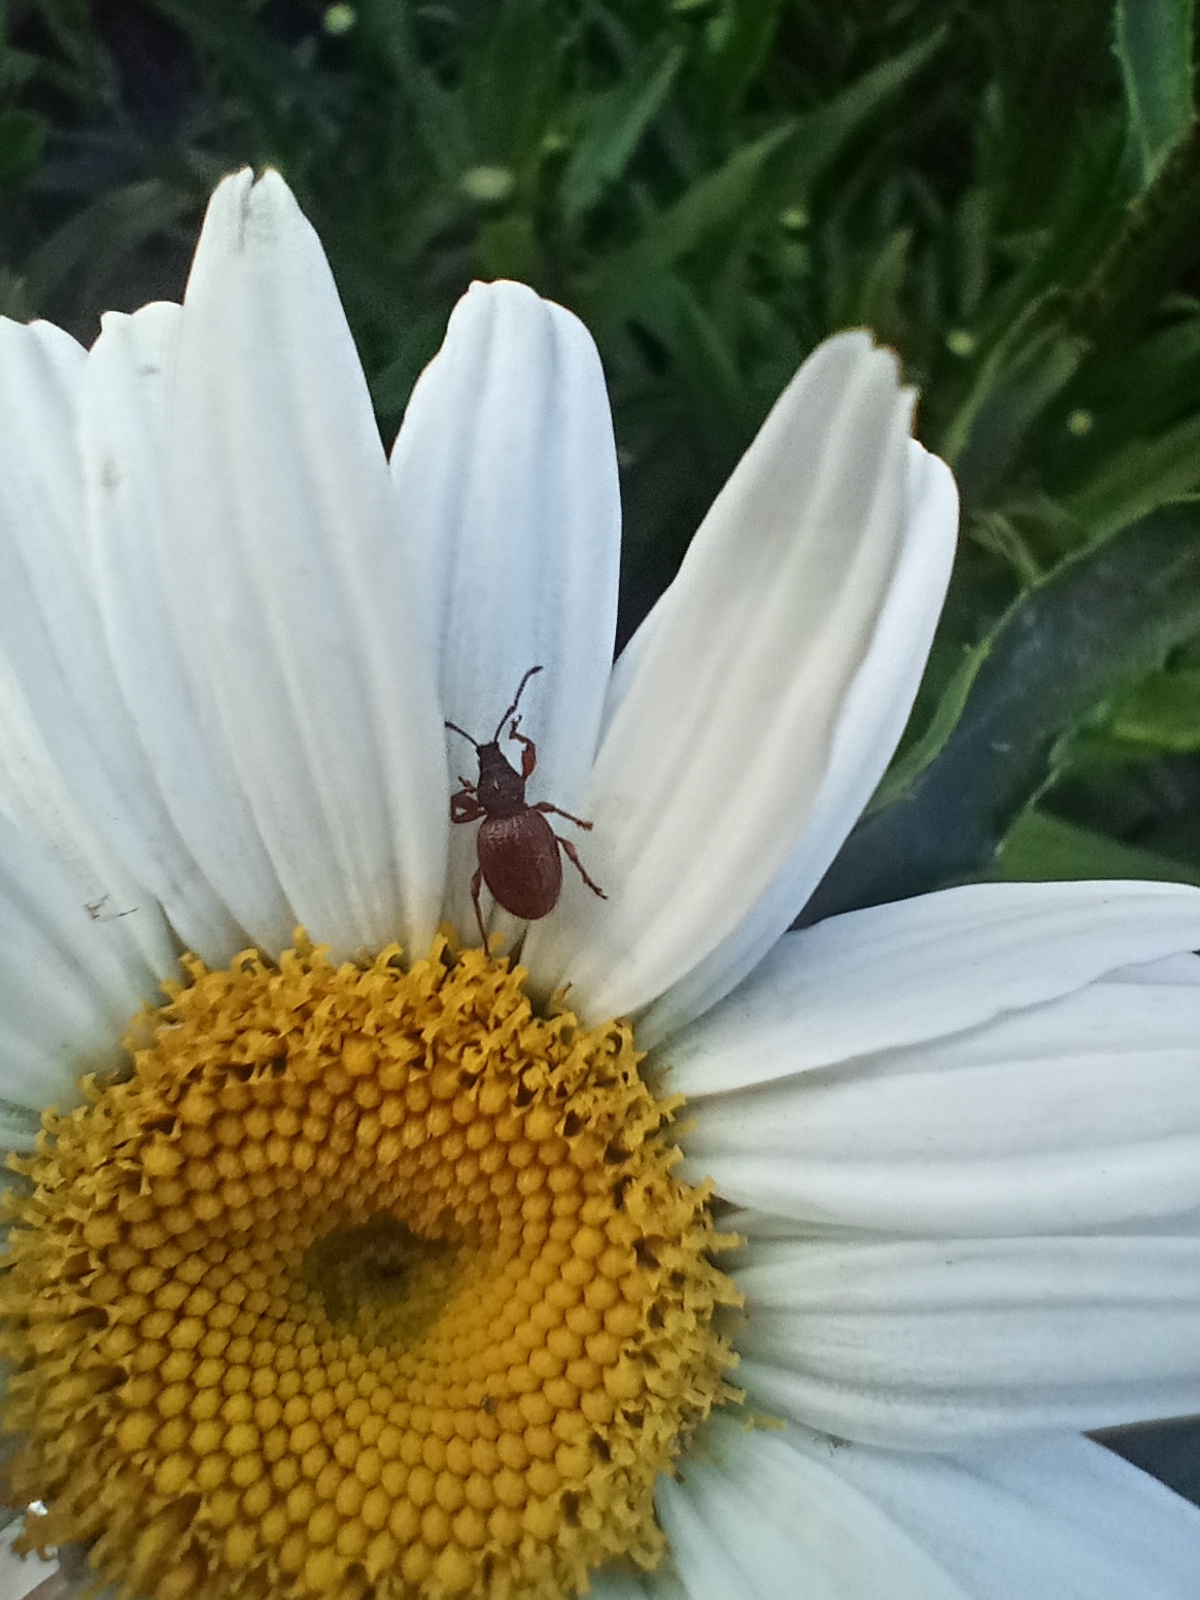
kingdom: Animalia
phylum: Arthropoda
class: Insecta
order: Coleoptera
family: Curculionidae
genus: Otiorhynchus
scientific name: Otiorhynchus ovatus
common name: Strawberry root weevil
